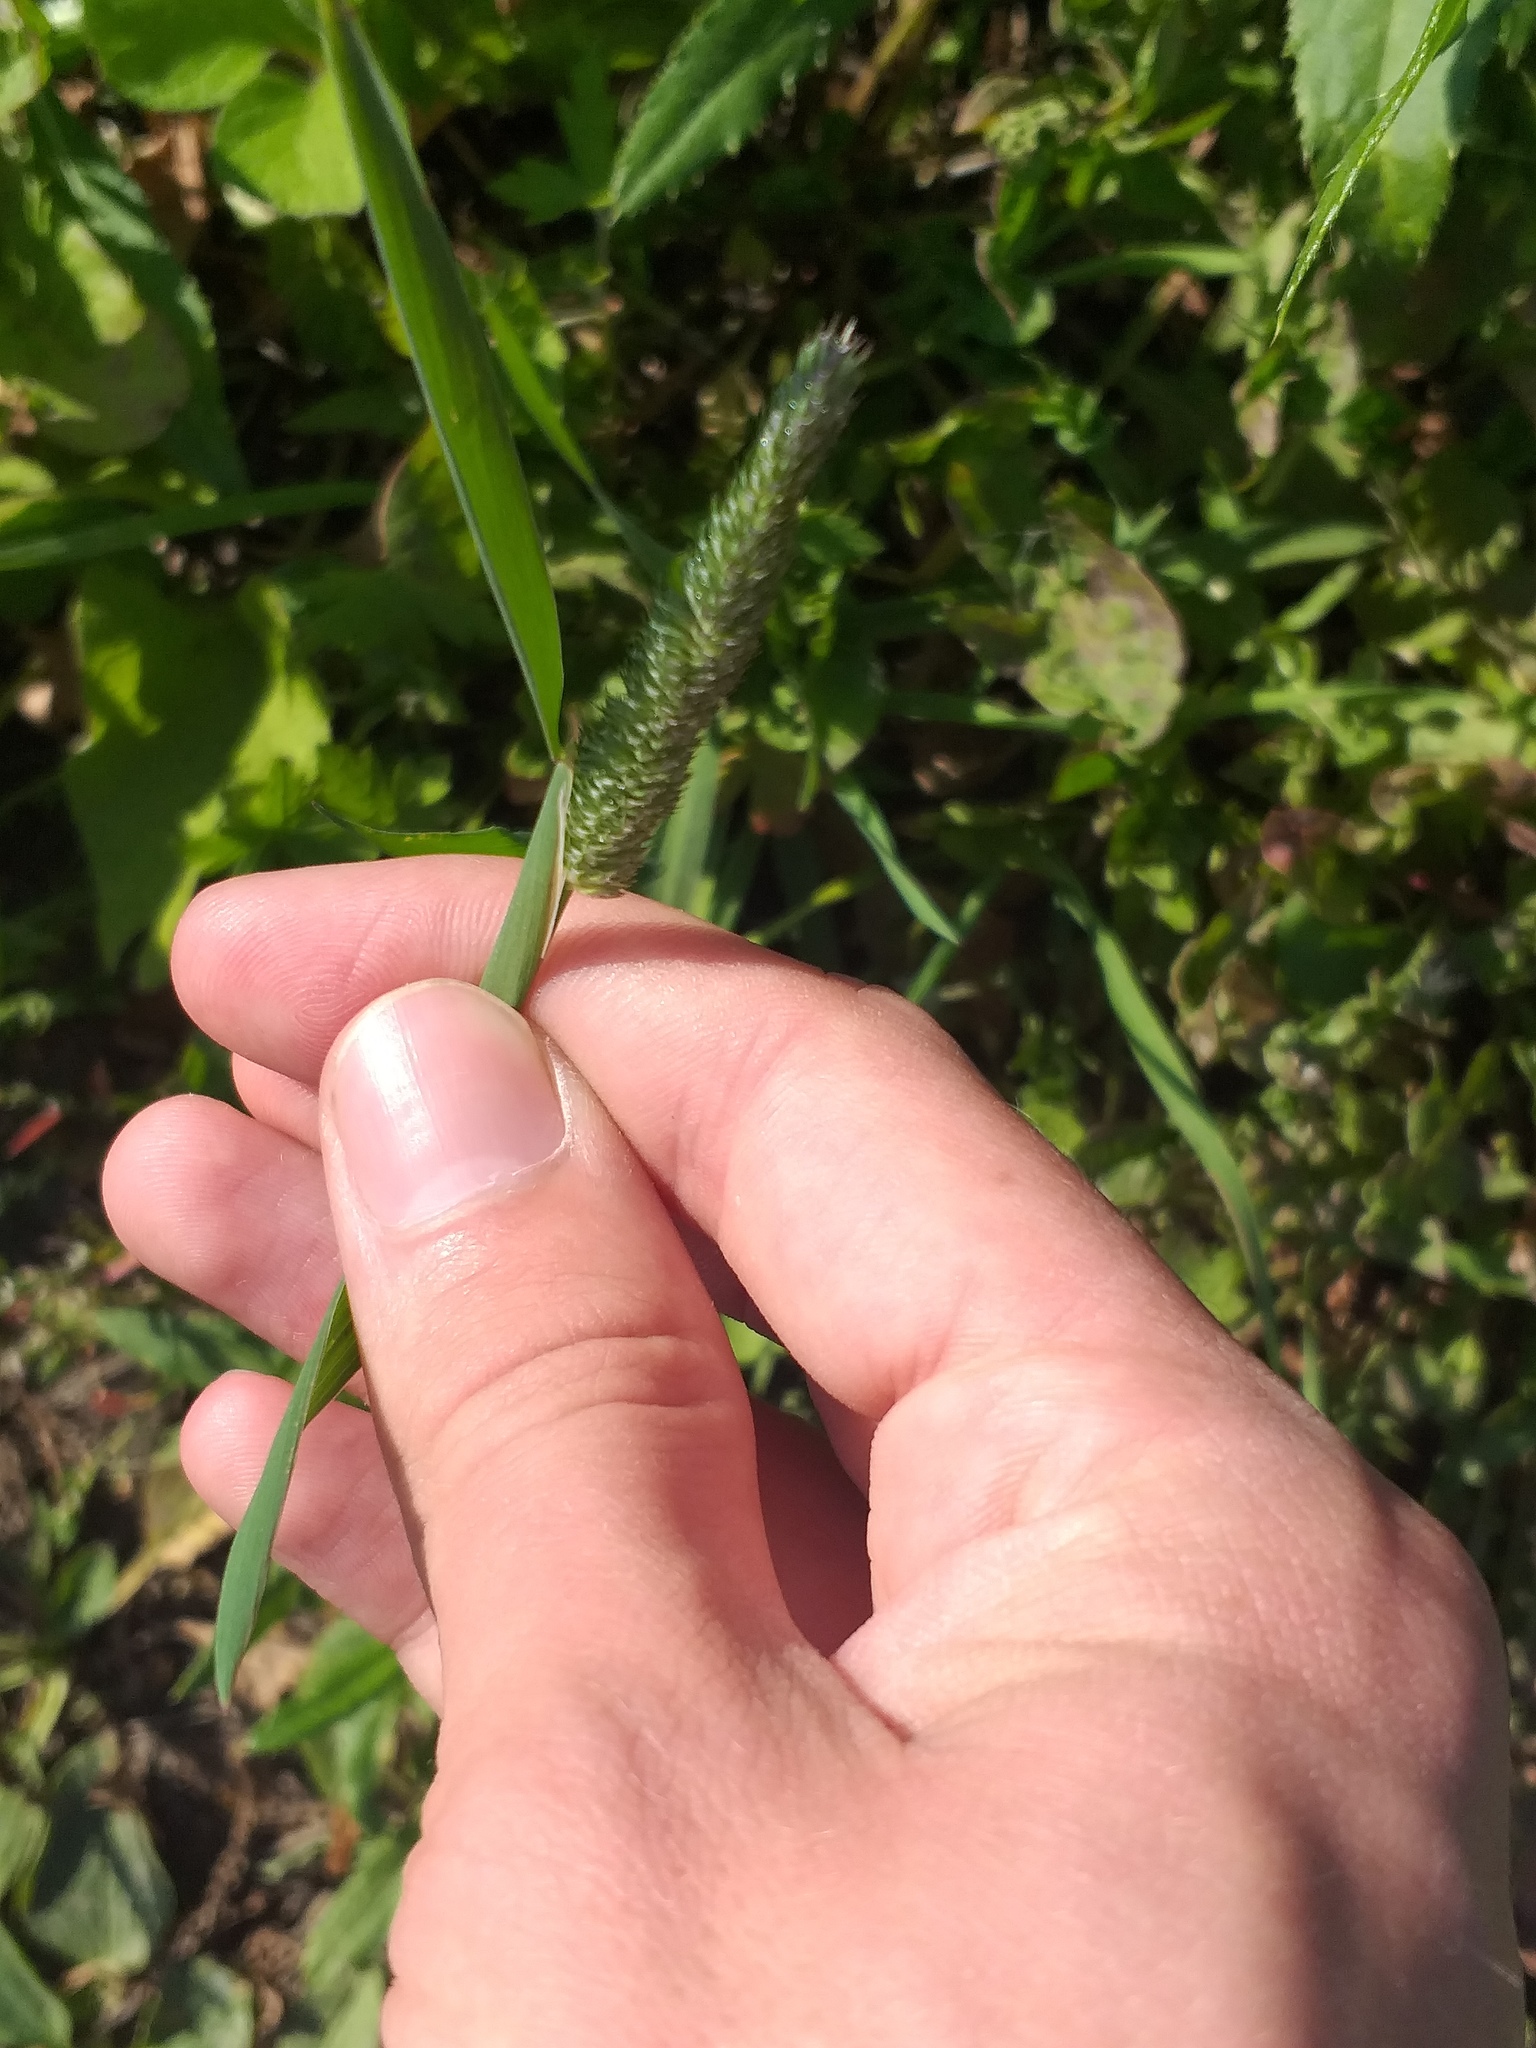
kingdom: Plantae
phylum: Tracheophyta
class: Liliopsida
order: Poales
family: Poaceae
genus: Phleum
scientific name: Phleum pratense
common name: Timothy grass
